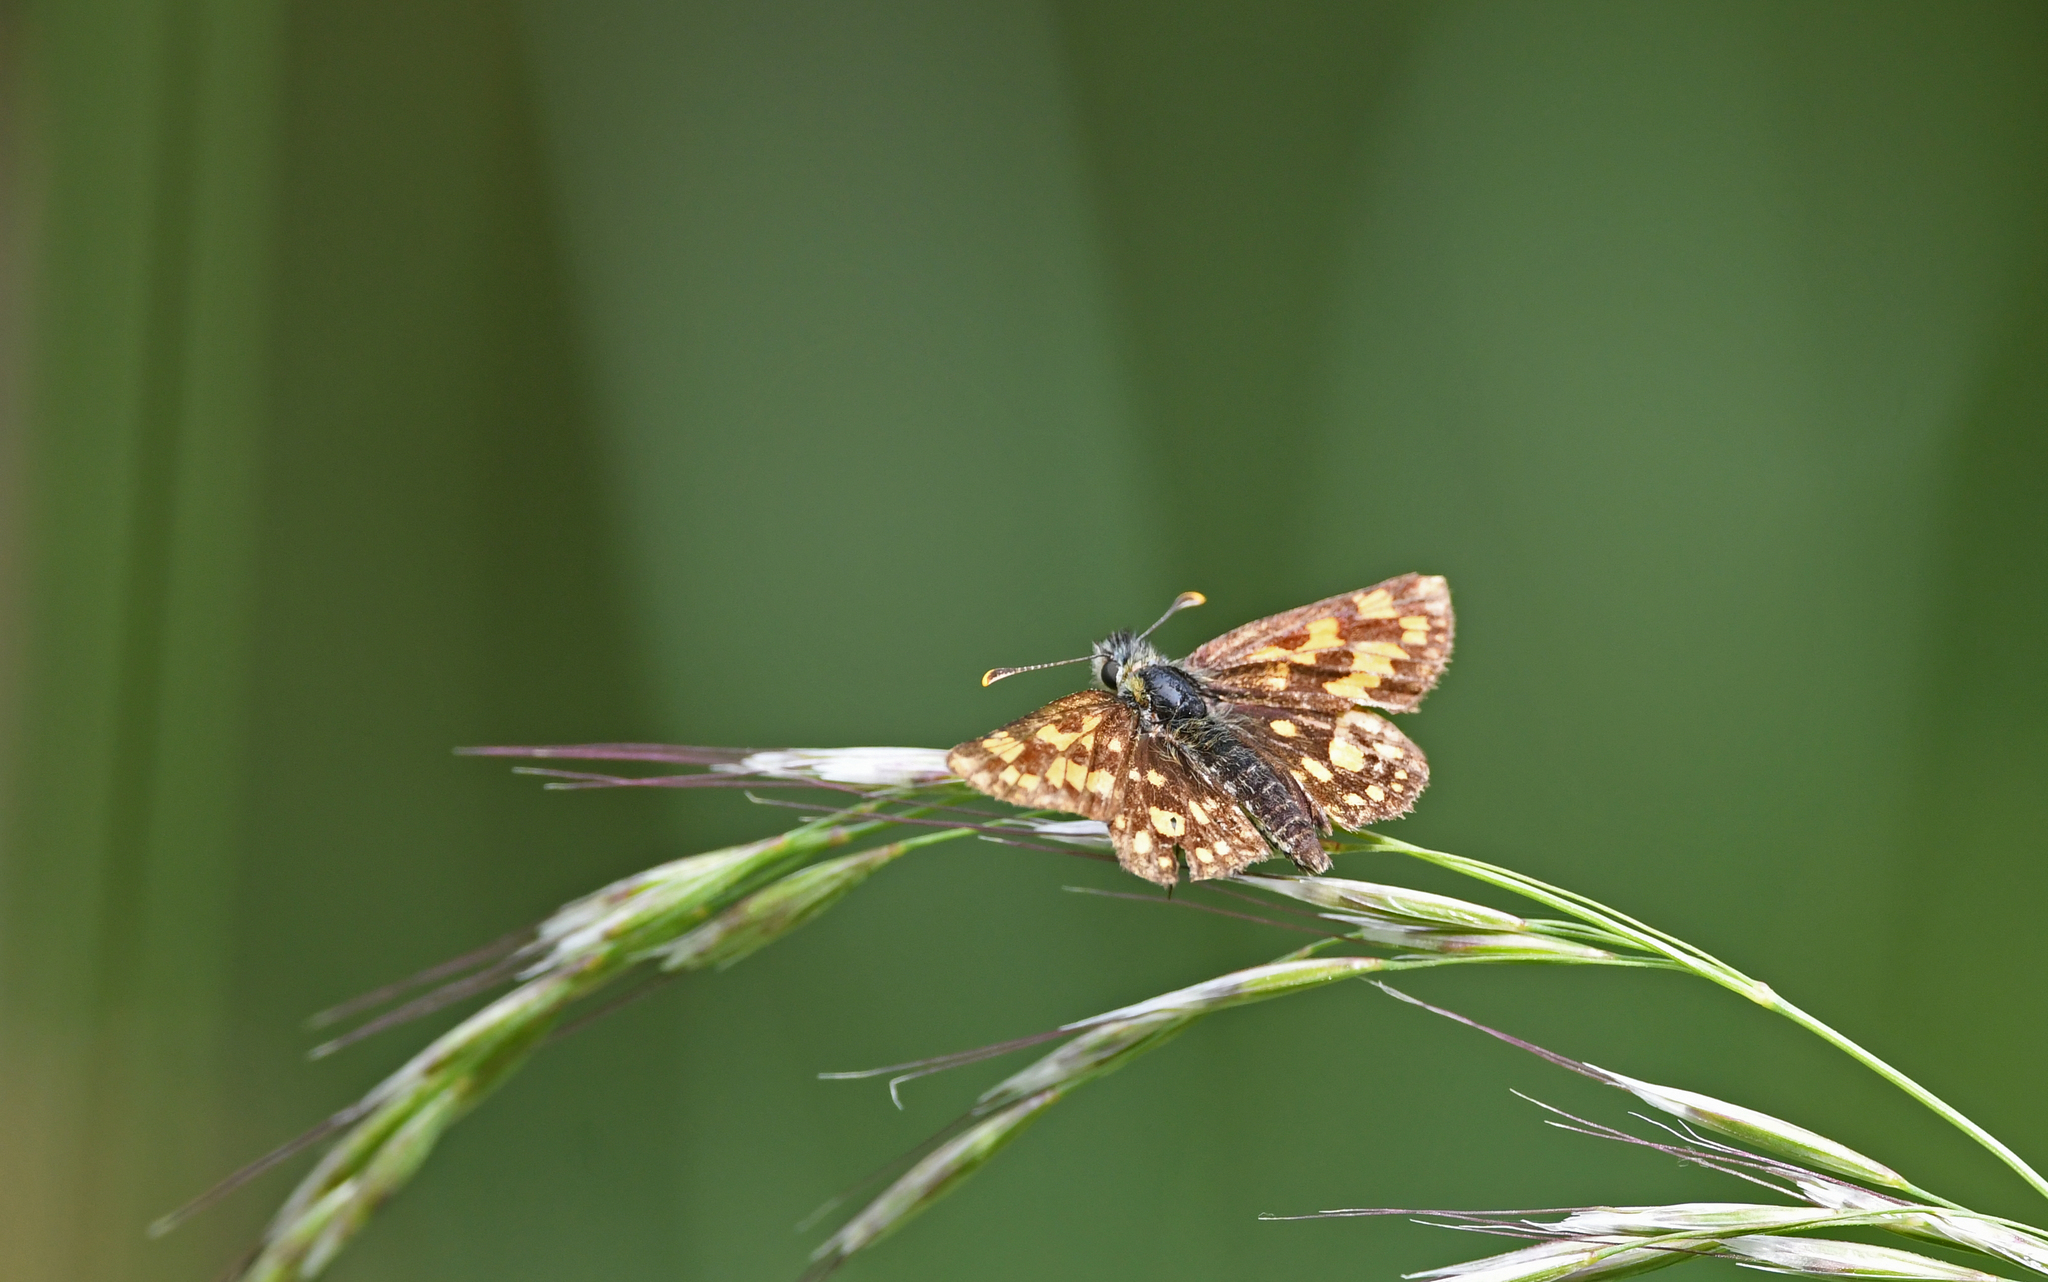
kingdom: Animalia
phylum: Arthropoda
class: Insecta
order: Lepidoptera
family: Hesperiidae
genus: Carterocephalus
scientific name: Carterocephalus palaemon
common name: Chequered skipper
